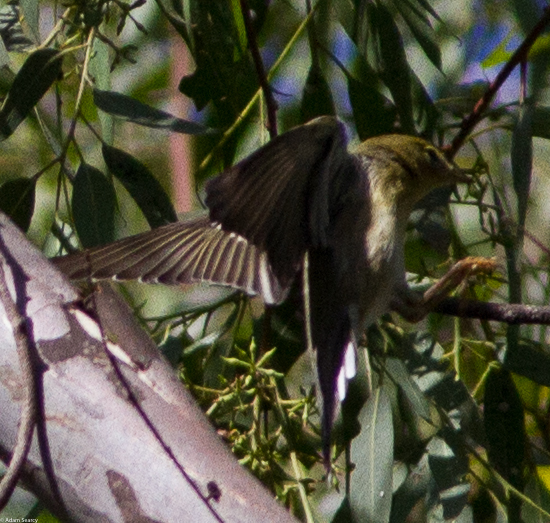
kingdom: Animalia
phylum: Chordata
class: Aves
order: Passeriformes
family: Parulidae
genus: Setophaga
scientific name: Setophaga striata
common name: Blackpoll warbler
